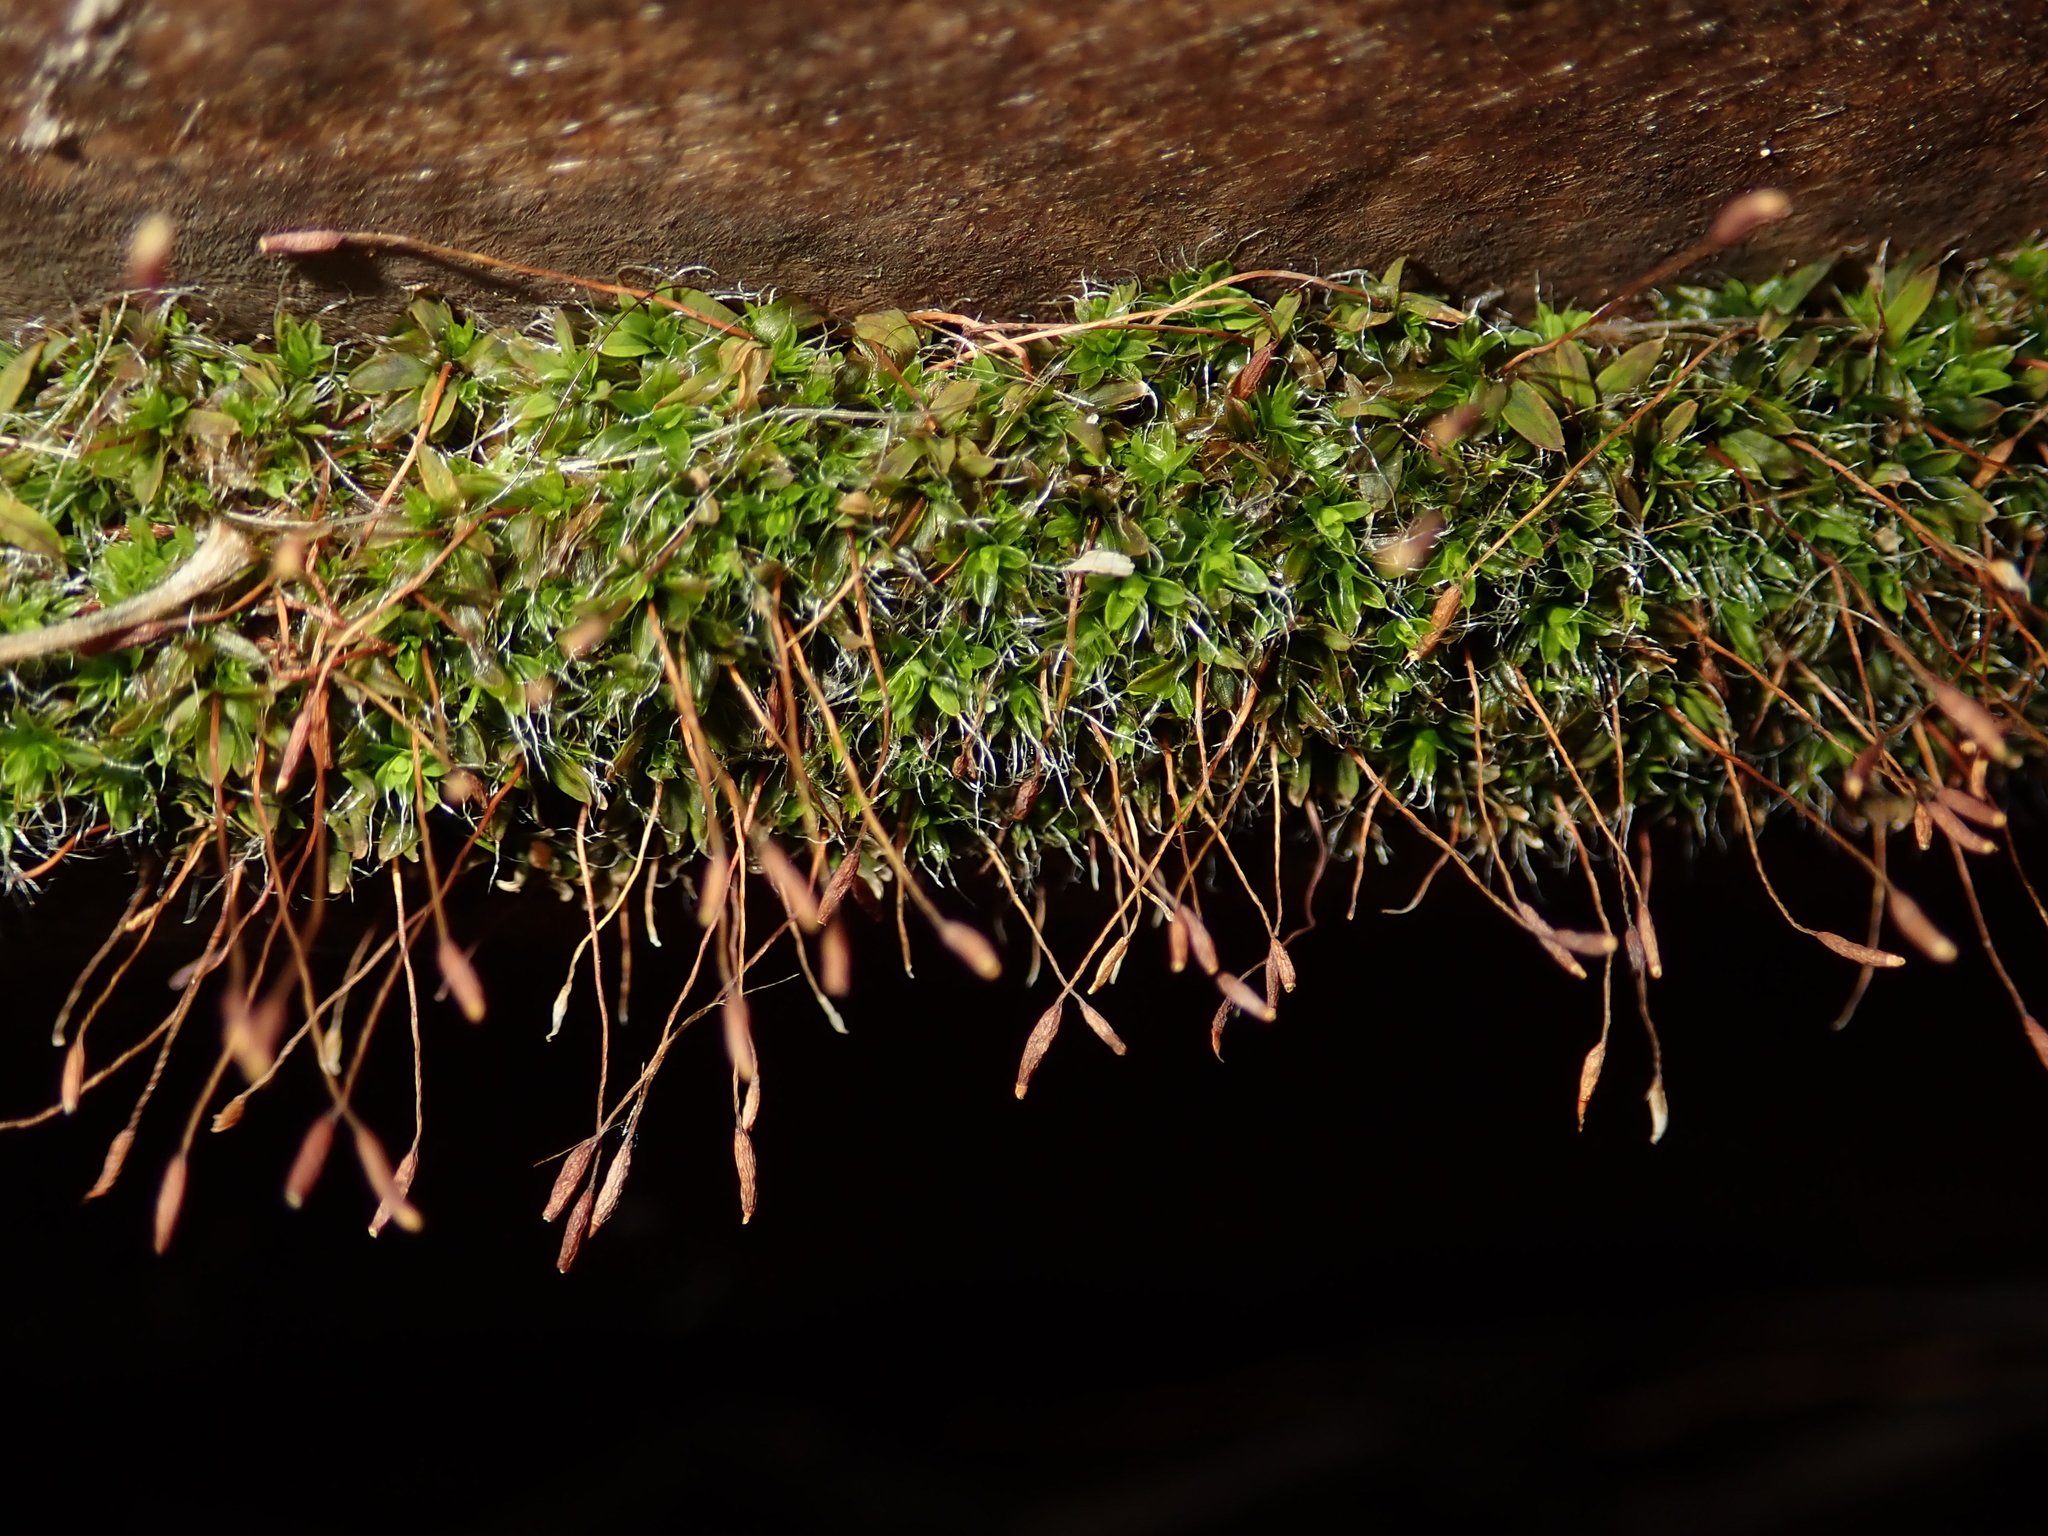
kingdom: Plantae
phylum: Bryophyta
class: Bryopsida
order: Pottiales
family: Pottiaceae
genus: Tortula
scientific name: Tortula muralis
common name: Wall screw-moss
